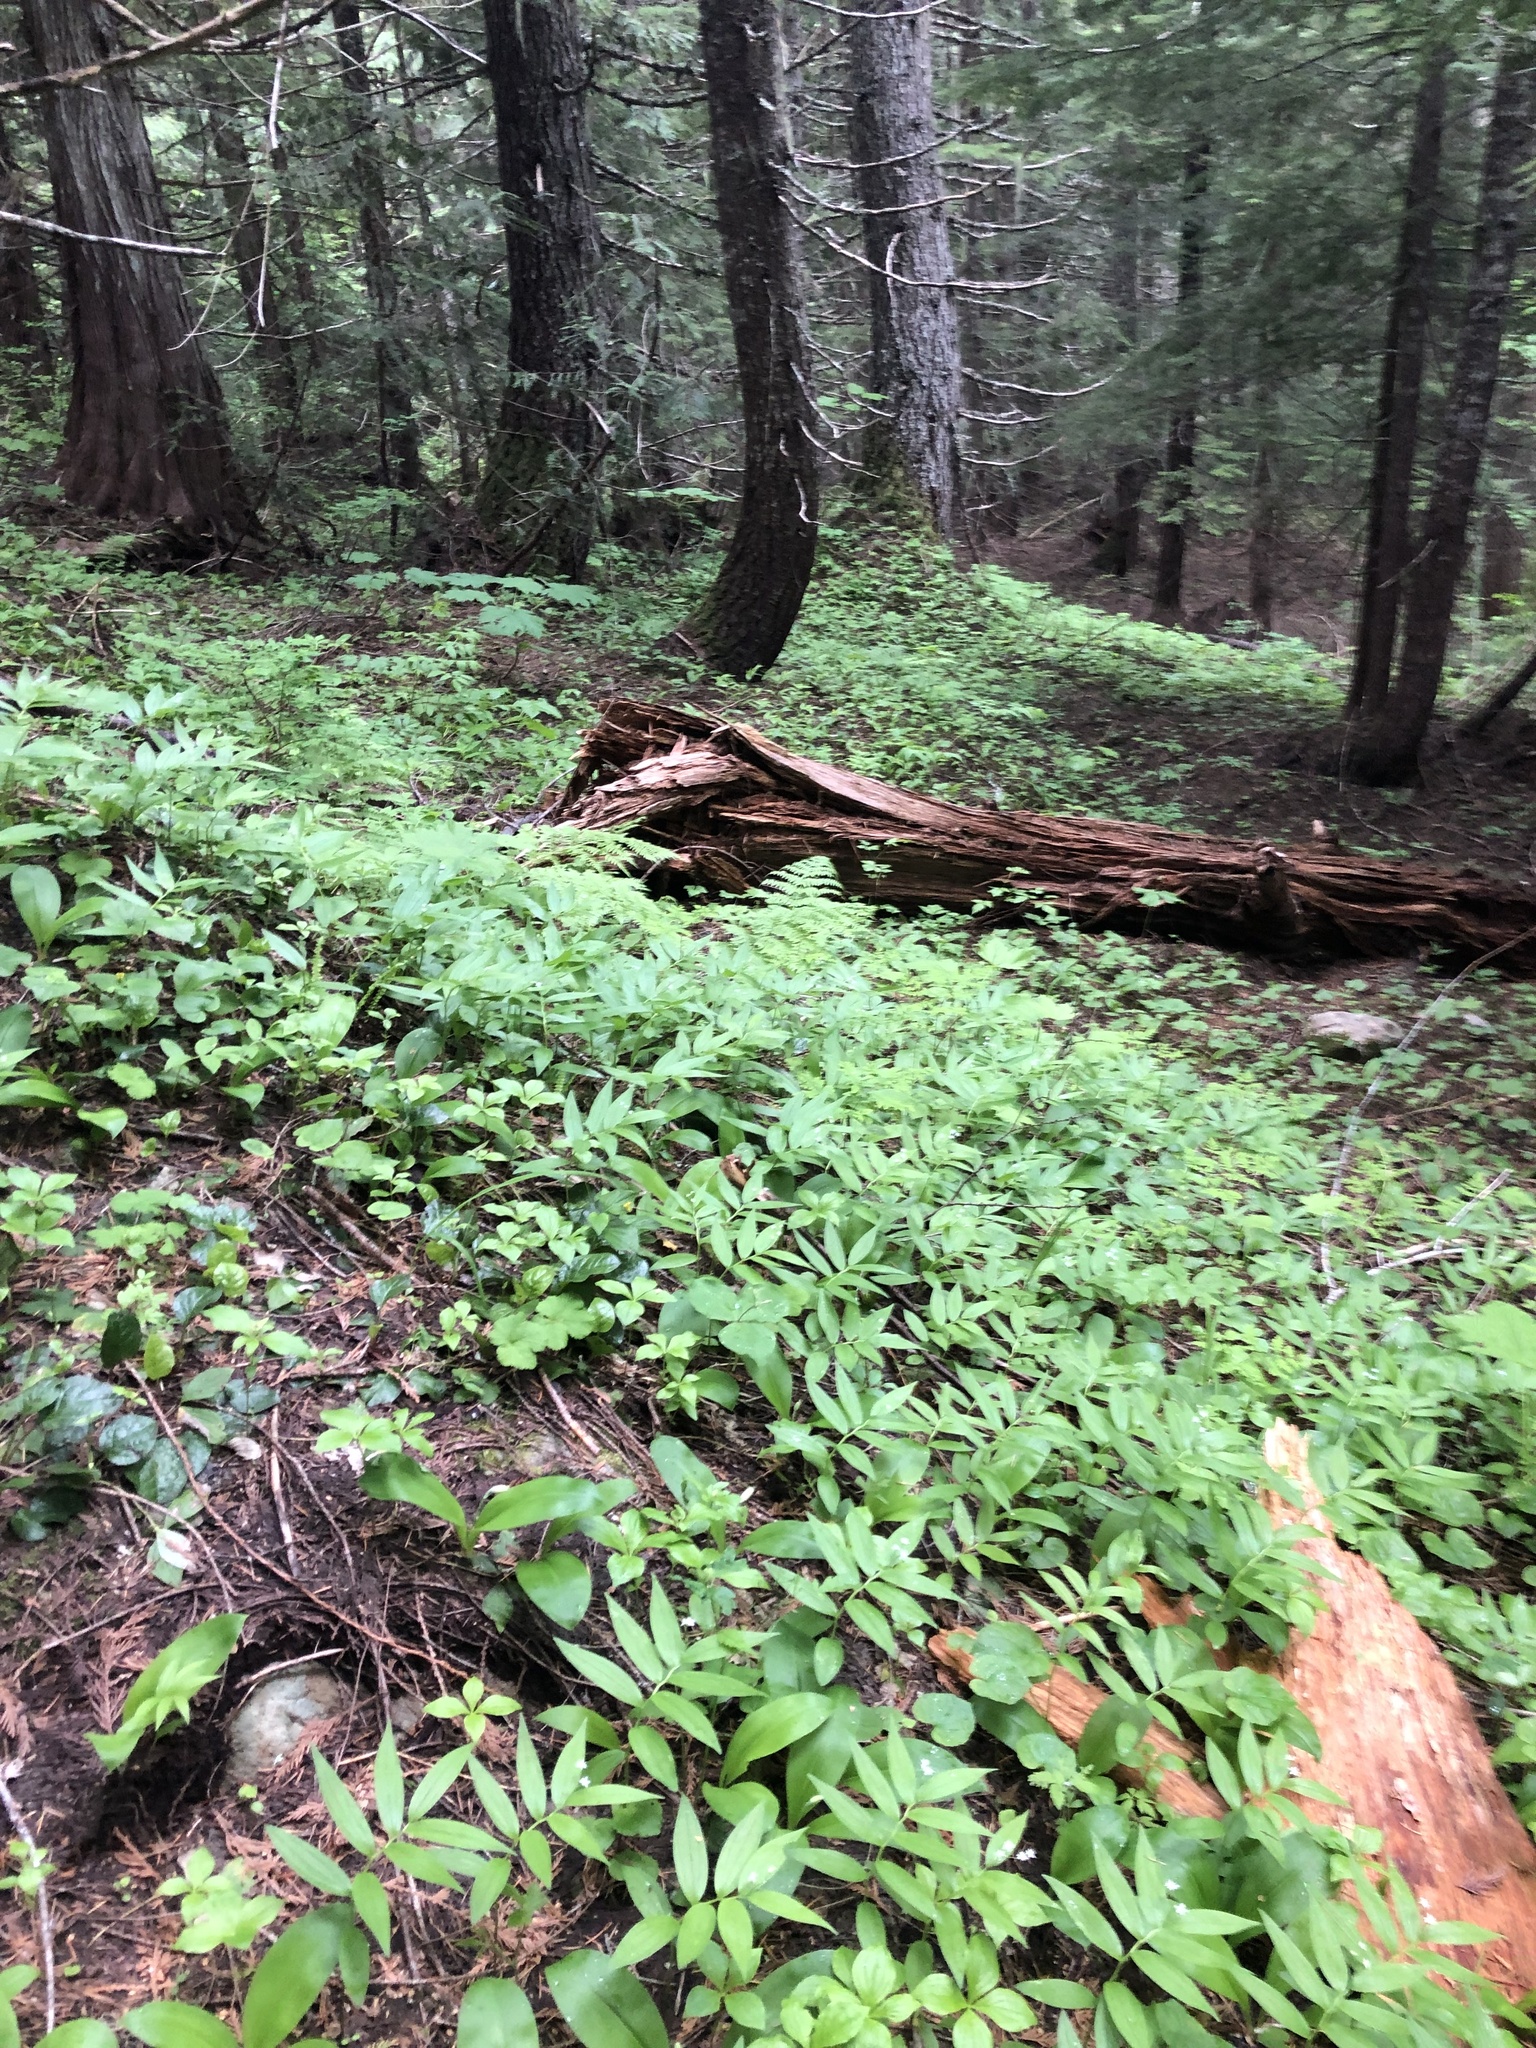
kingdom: Plantae
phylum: Tracheophyta
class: Liliopsida
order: Asparagales
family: Asparagaceae
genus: Maianthemum
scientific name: Maianthemum stellatum
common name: Little false solomon's seal
